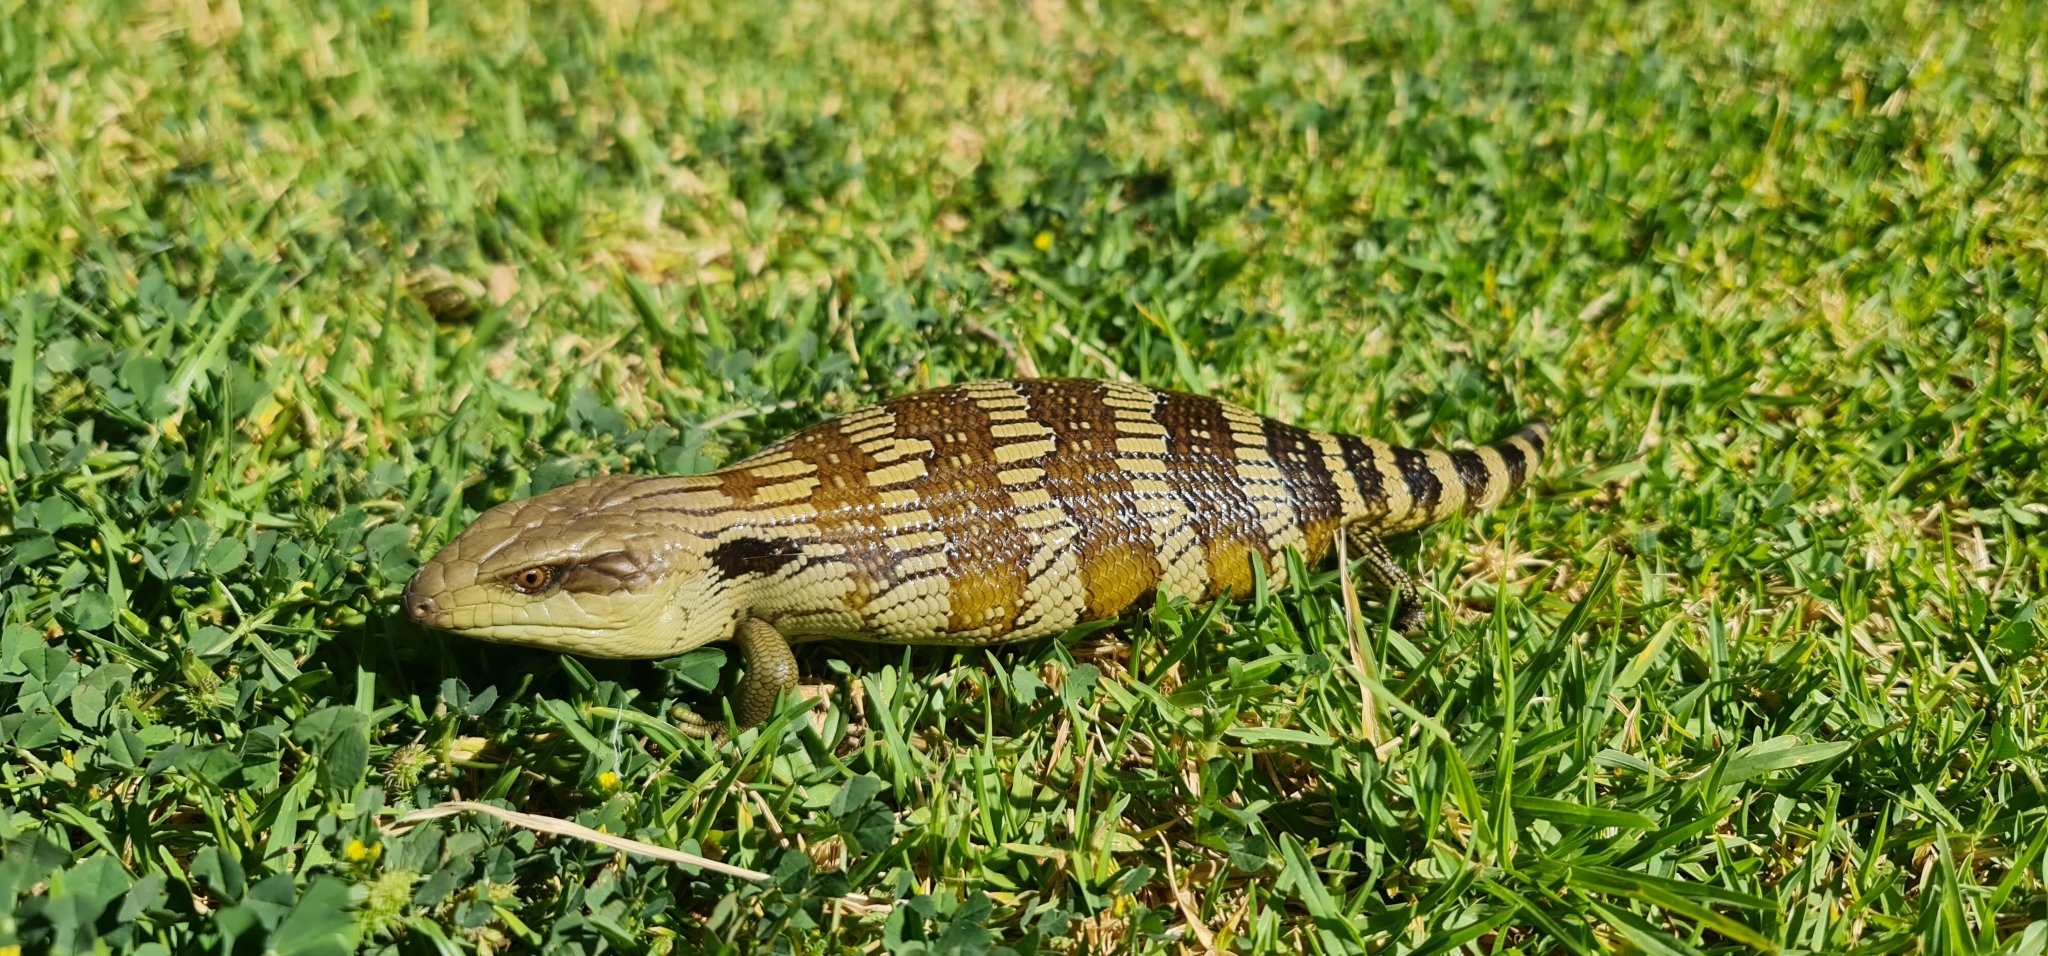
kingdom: Animalia
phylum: Chordata
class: Squamata
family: Scincidae
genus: Tiliqua
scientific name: Tiliqua scincoides
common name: Common bluetongue
